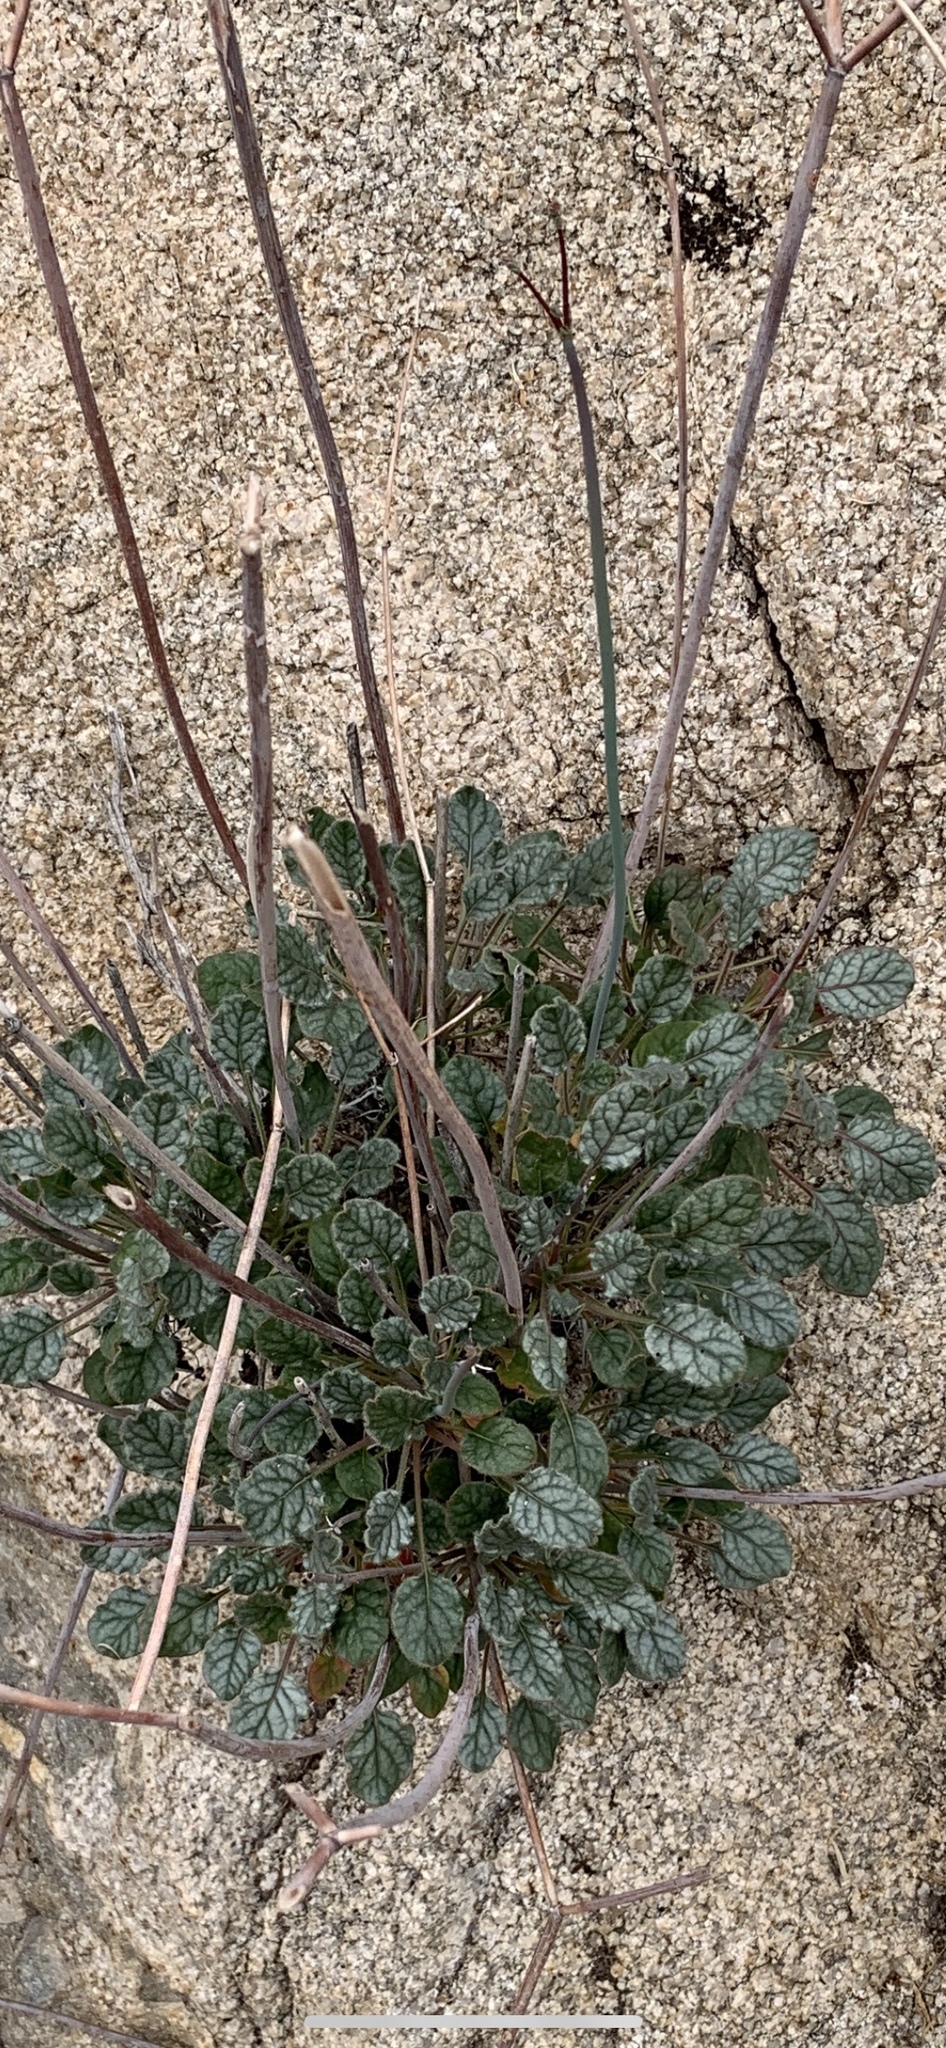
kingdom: Plantae
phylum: Tracheophyta
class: Magnoliopsida
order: Caryophyllales
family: Polygonaceae
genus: Eriogonum
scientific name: Eriogonum inflatum
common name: Desert trumpet
